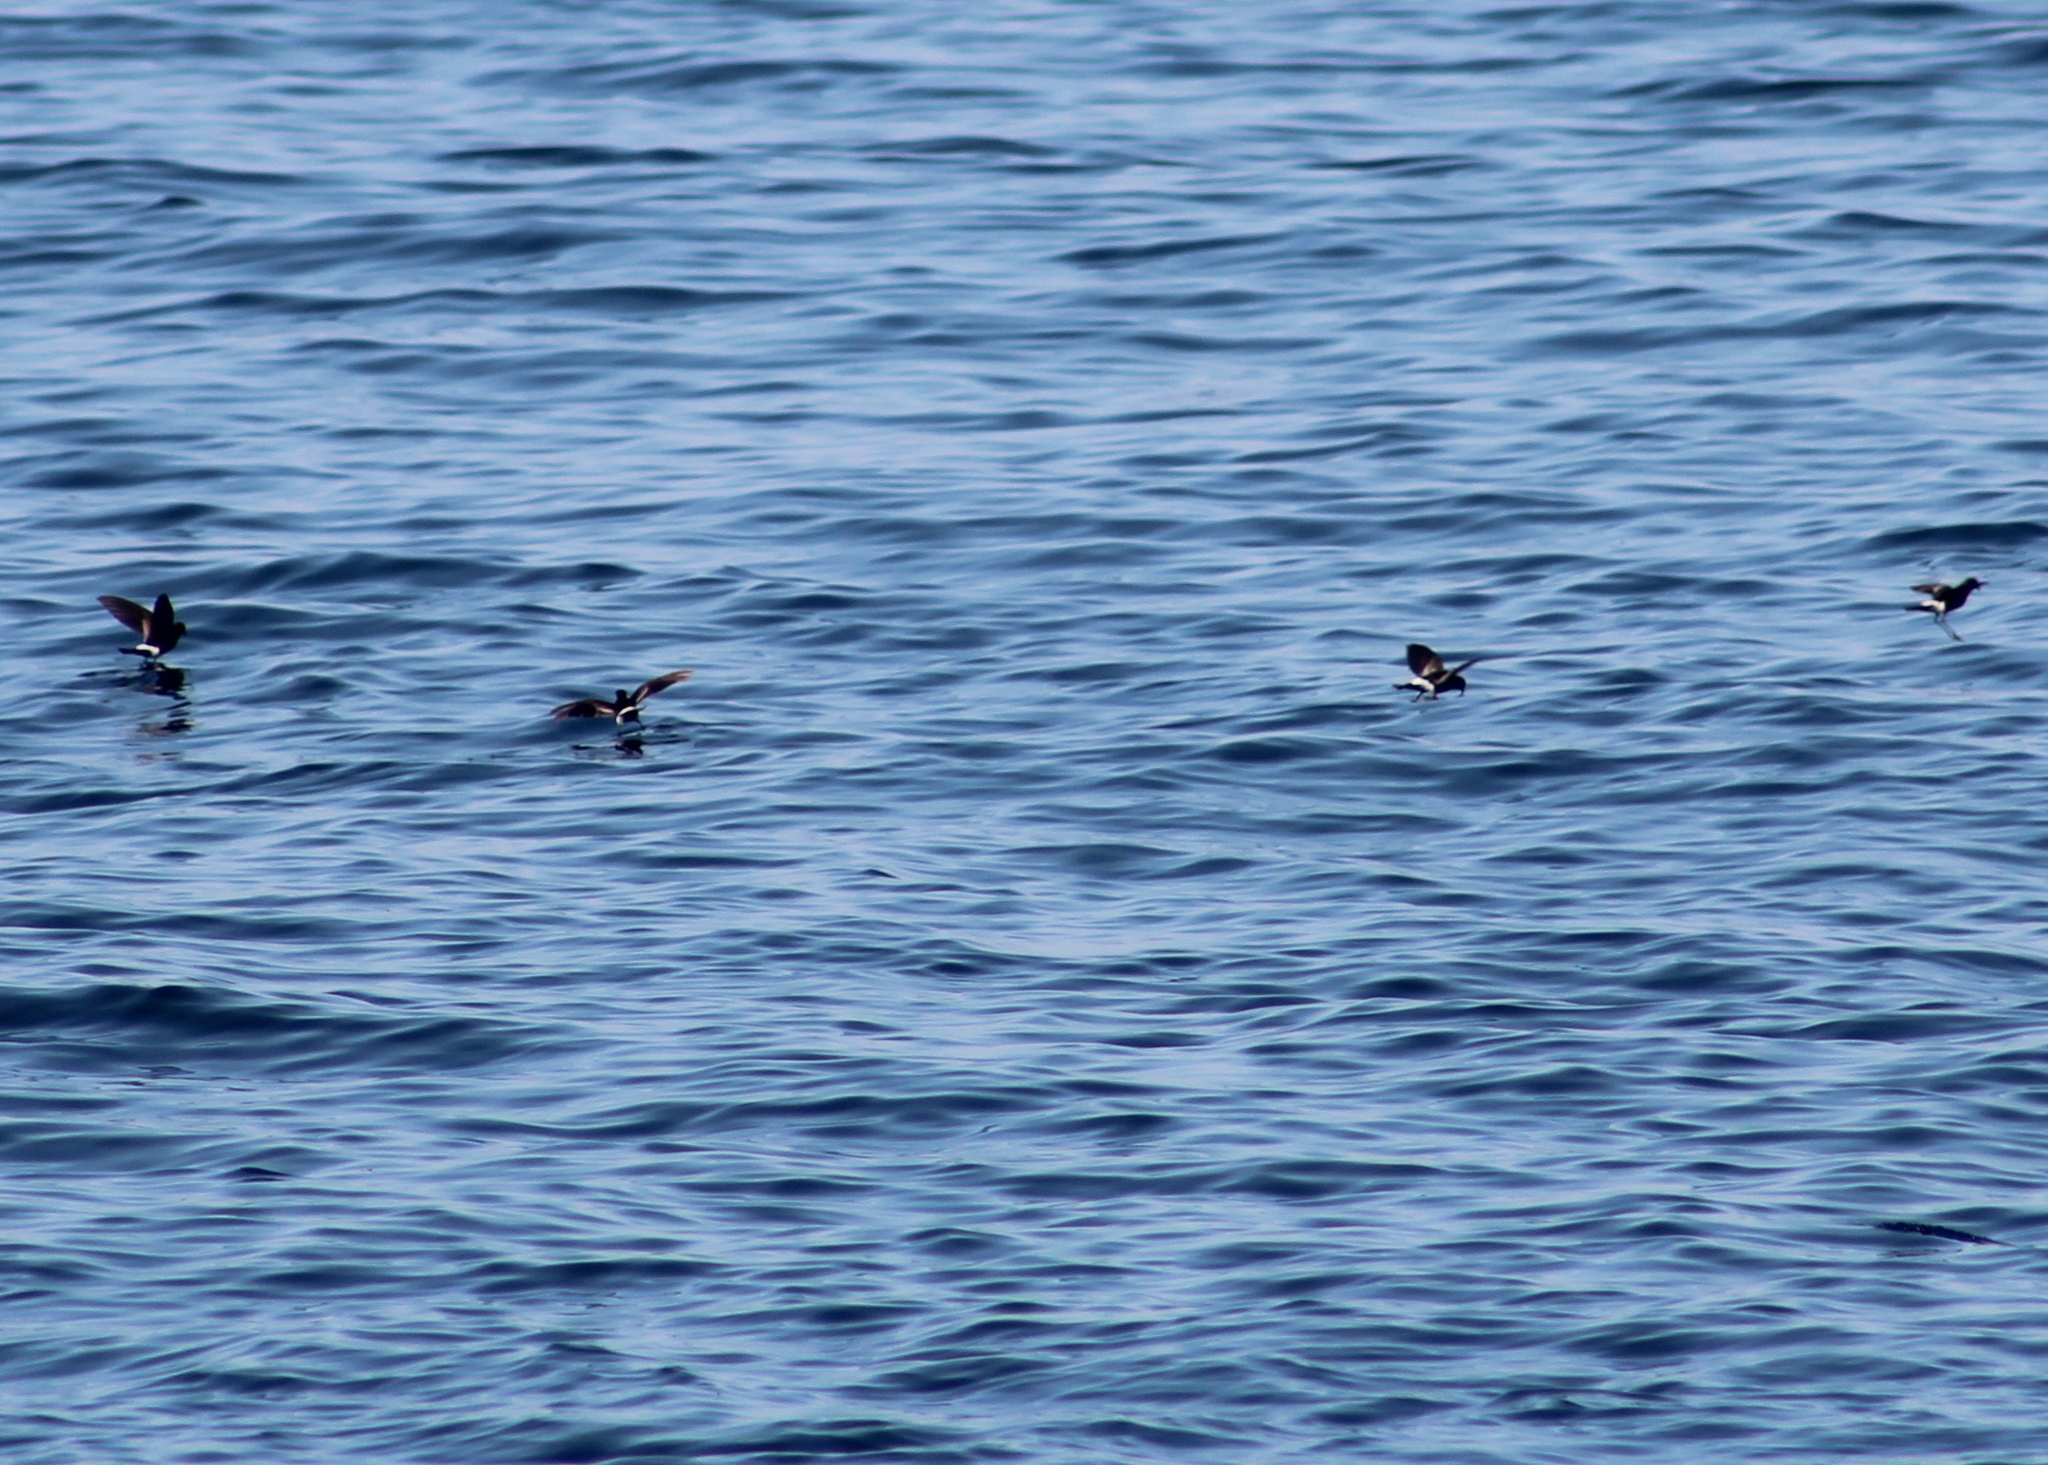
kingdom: Animalia
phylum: Chordata
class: Aves
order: Procellariiformes
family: Hydrobatidae
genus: Oceanites
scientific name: Oceanites oceanicus
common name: Wilson's storm petrel
